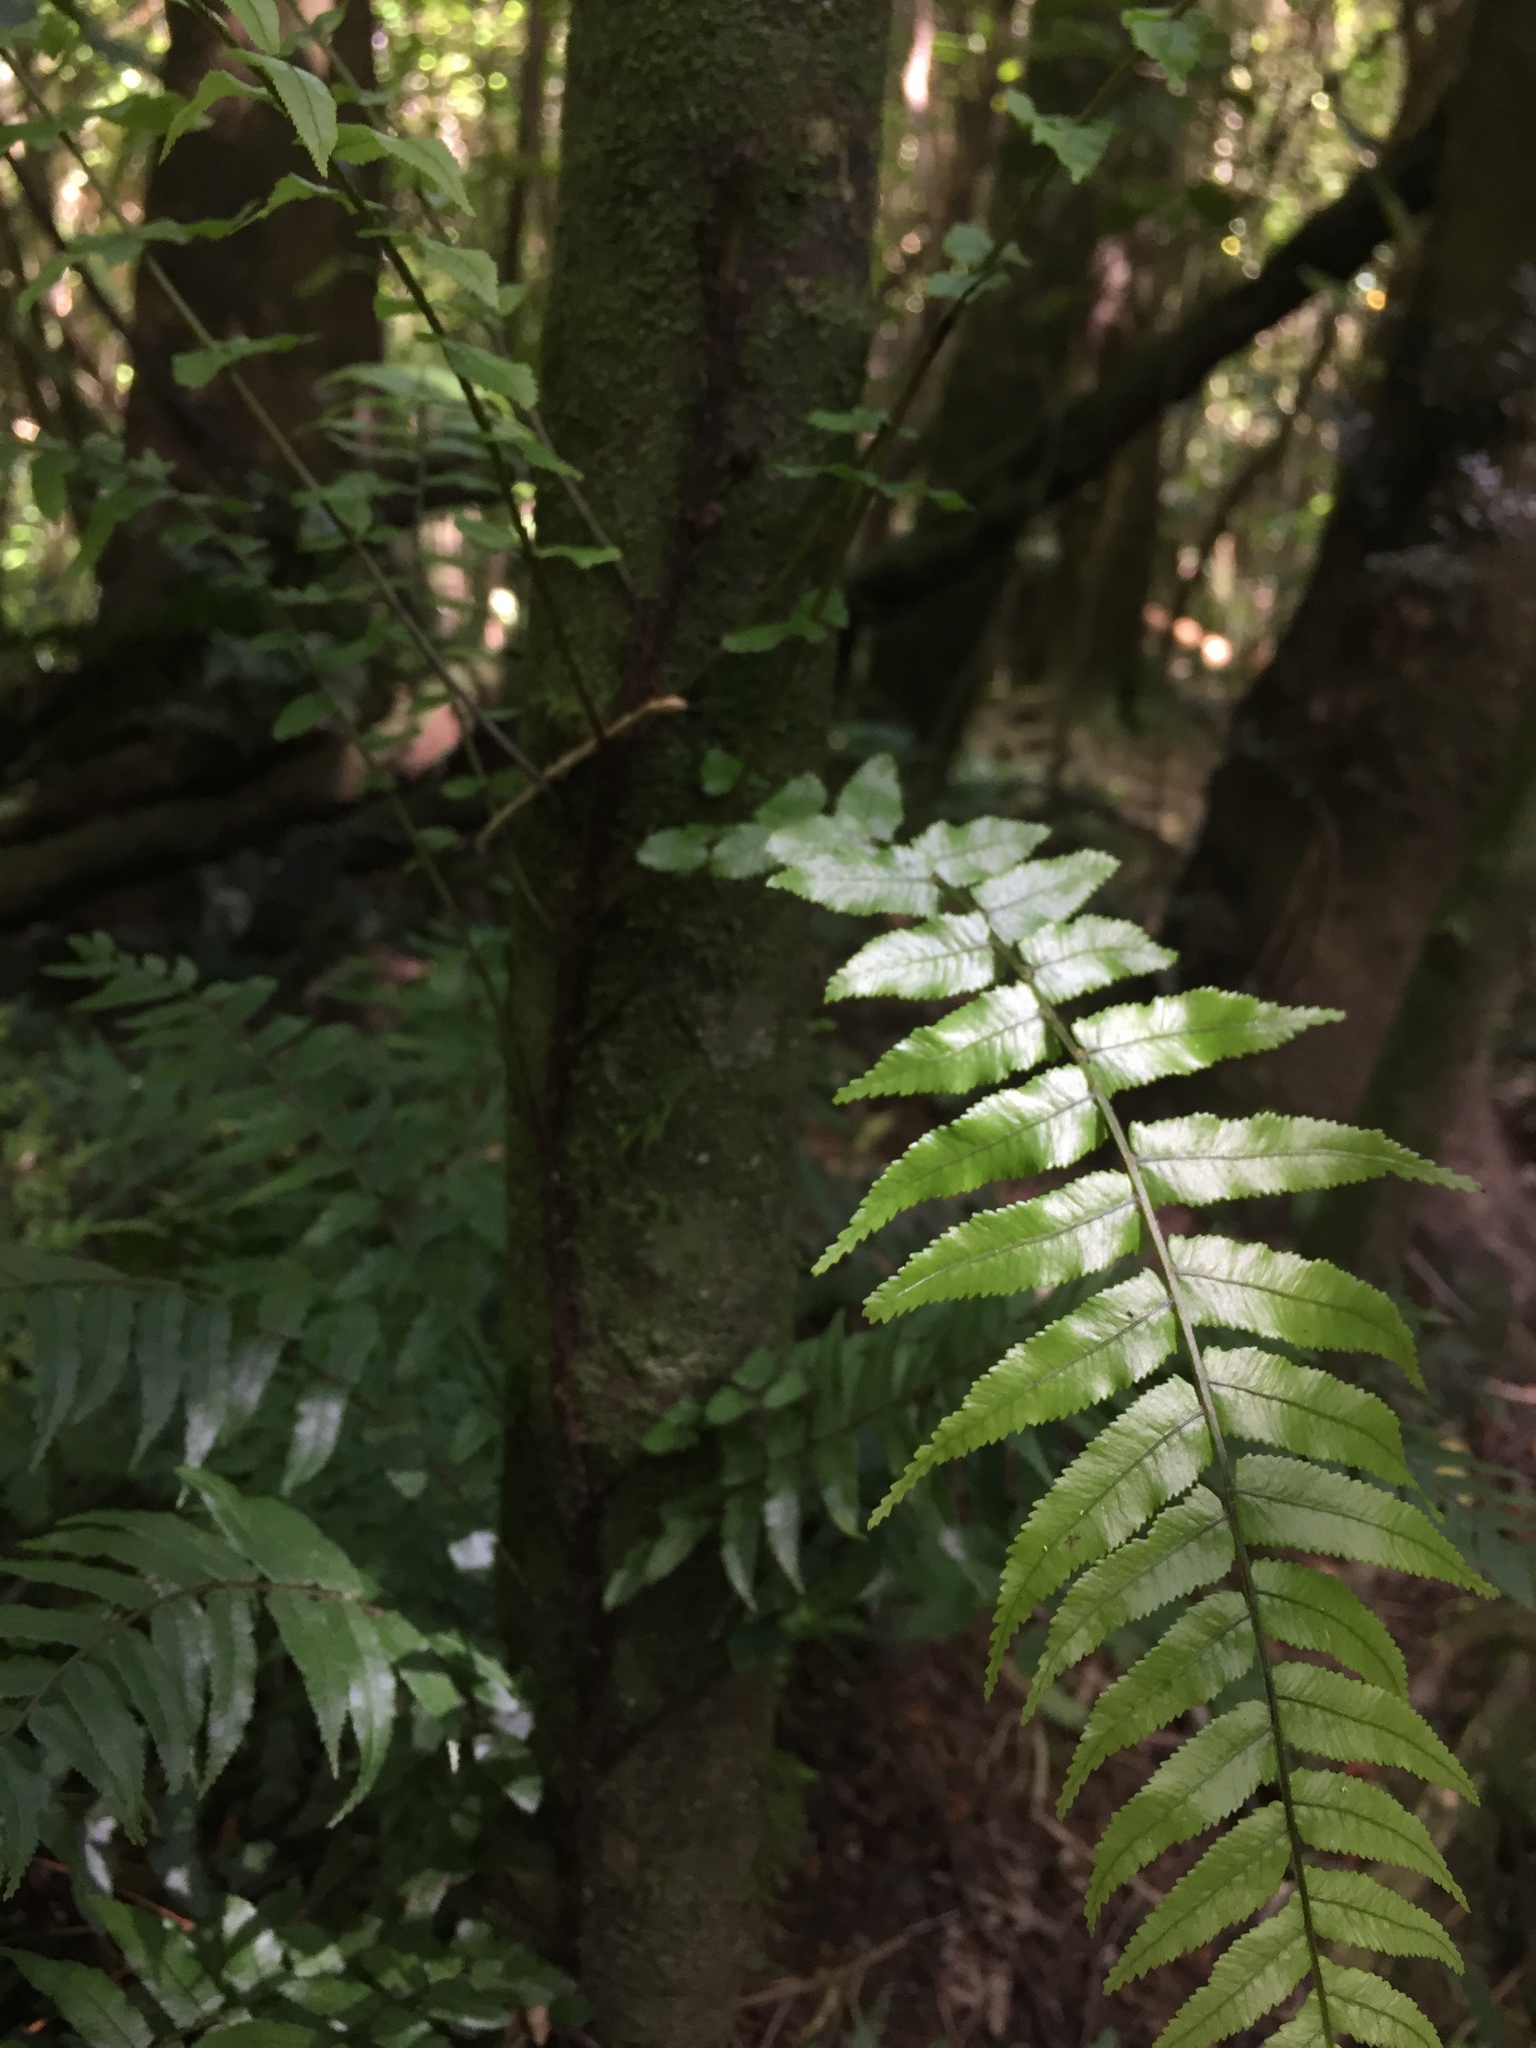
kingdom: Plantae
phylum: Tracheophyta
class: Polypodiopsida
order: Polypodiales
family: Blechnaceae
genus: Icarus
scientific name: Icarus filiformis
